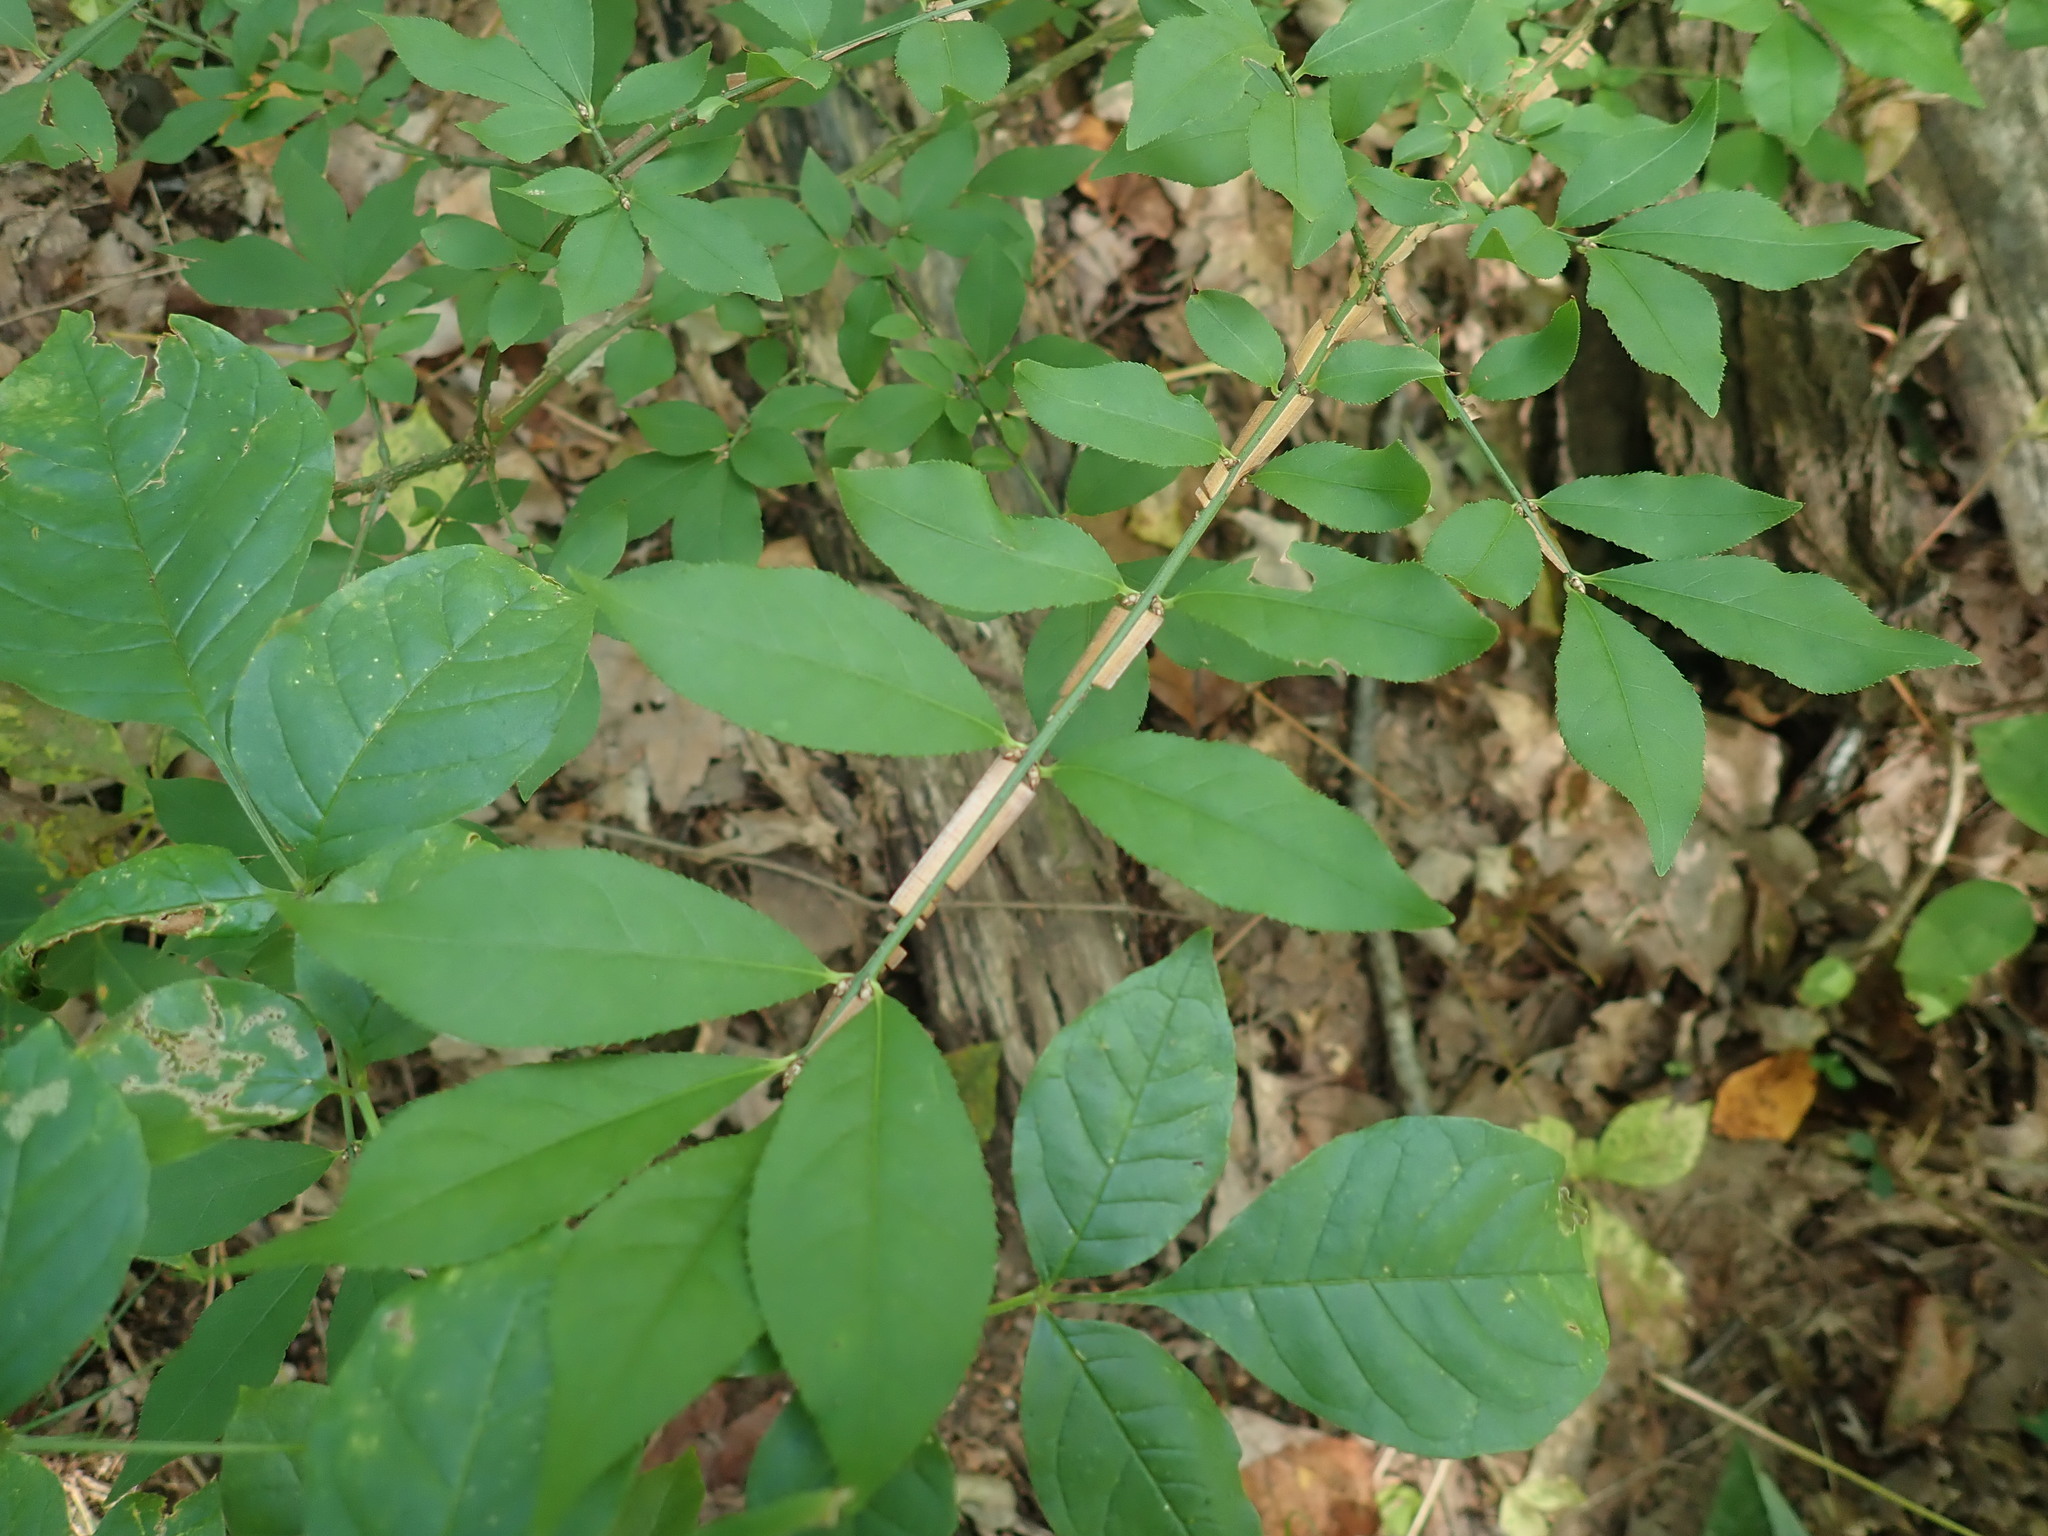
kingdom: Plantae
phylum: Tracheophyta
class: Magnoliopsida
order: Celastrales
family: Celastraceae
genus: Euonymus
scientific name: Euonymus alatus
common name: Winged euonymus
